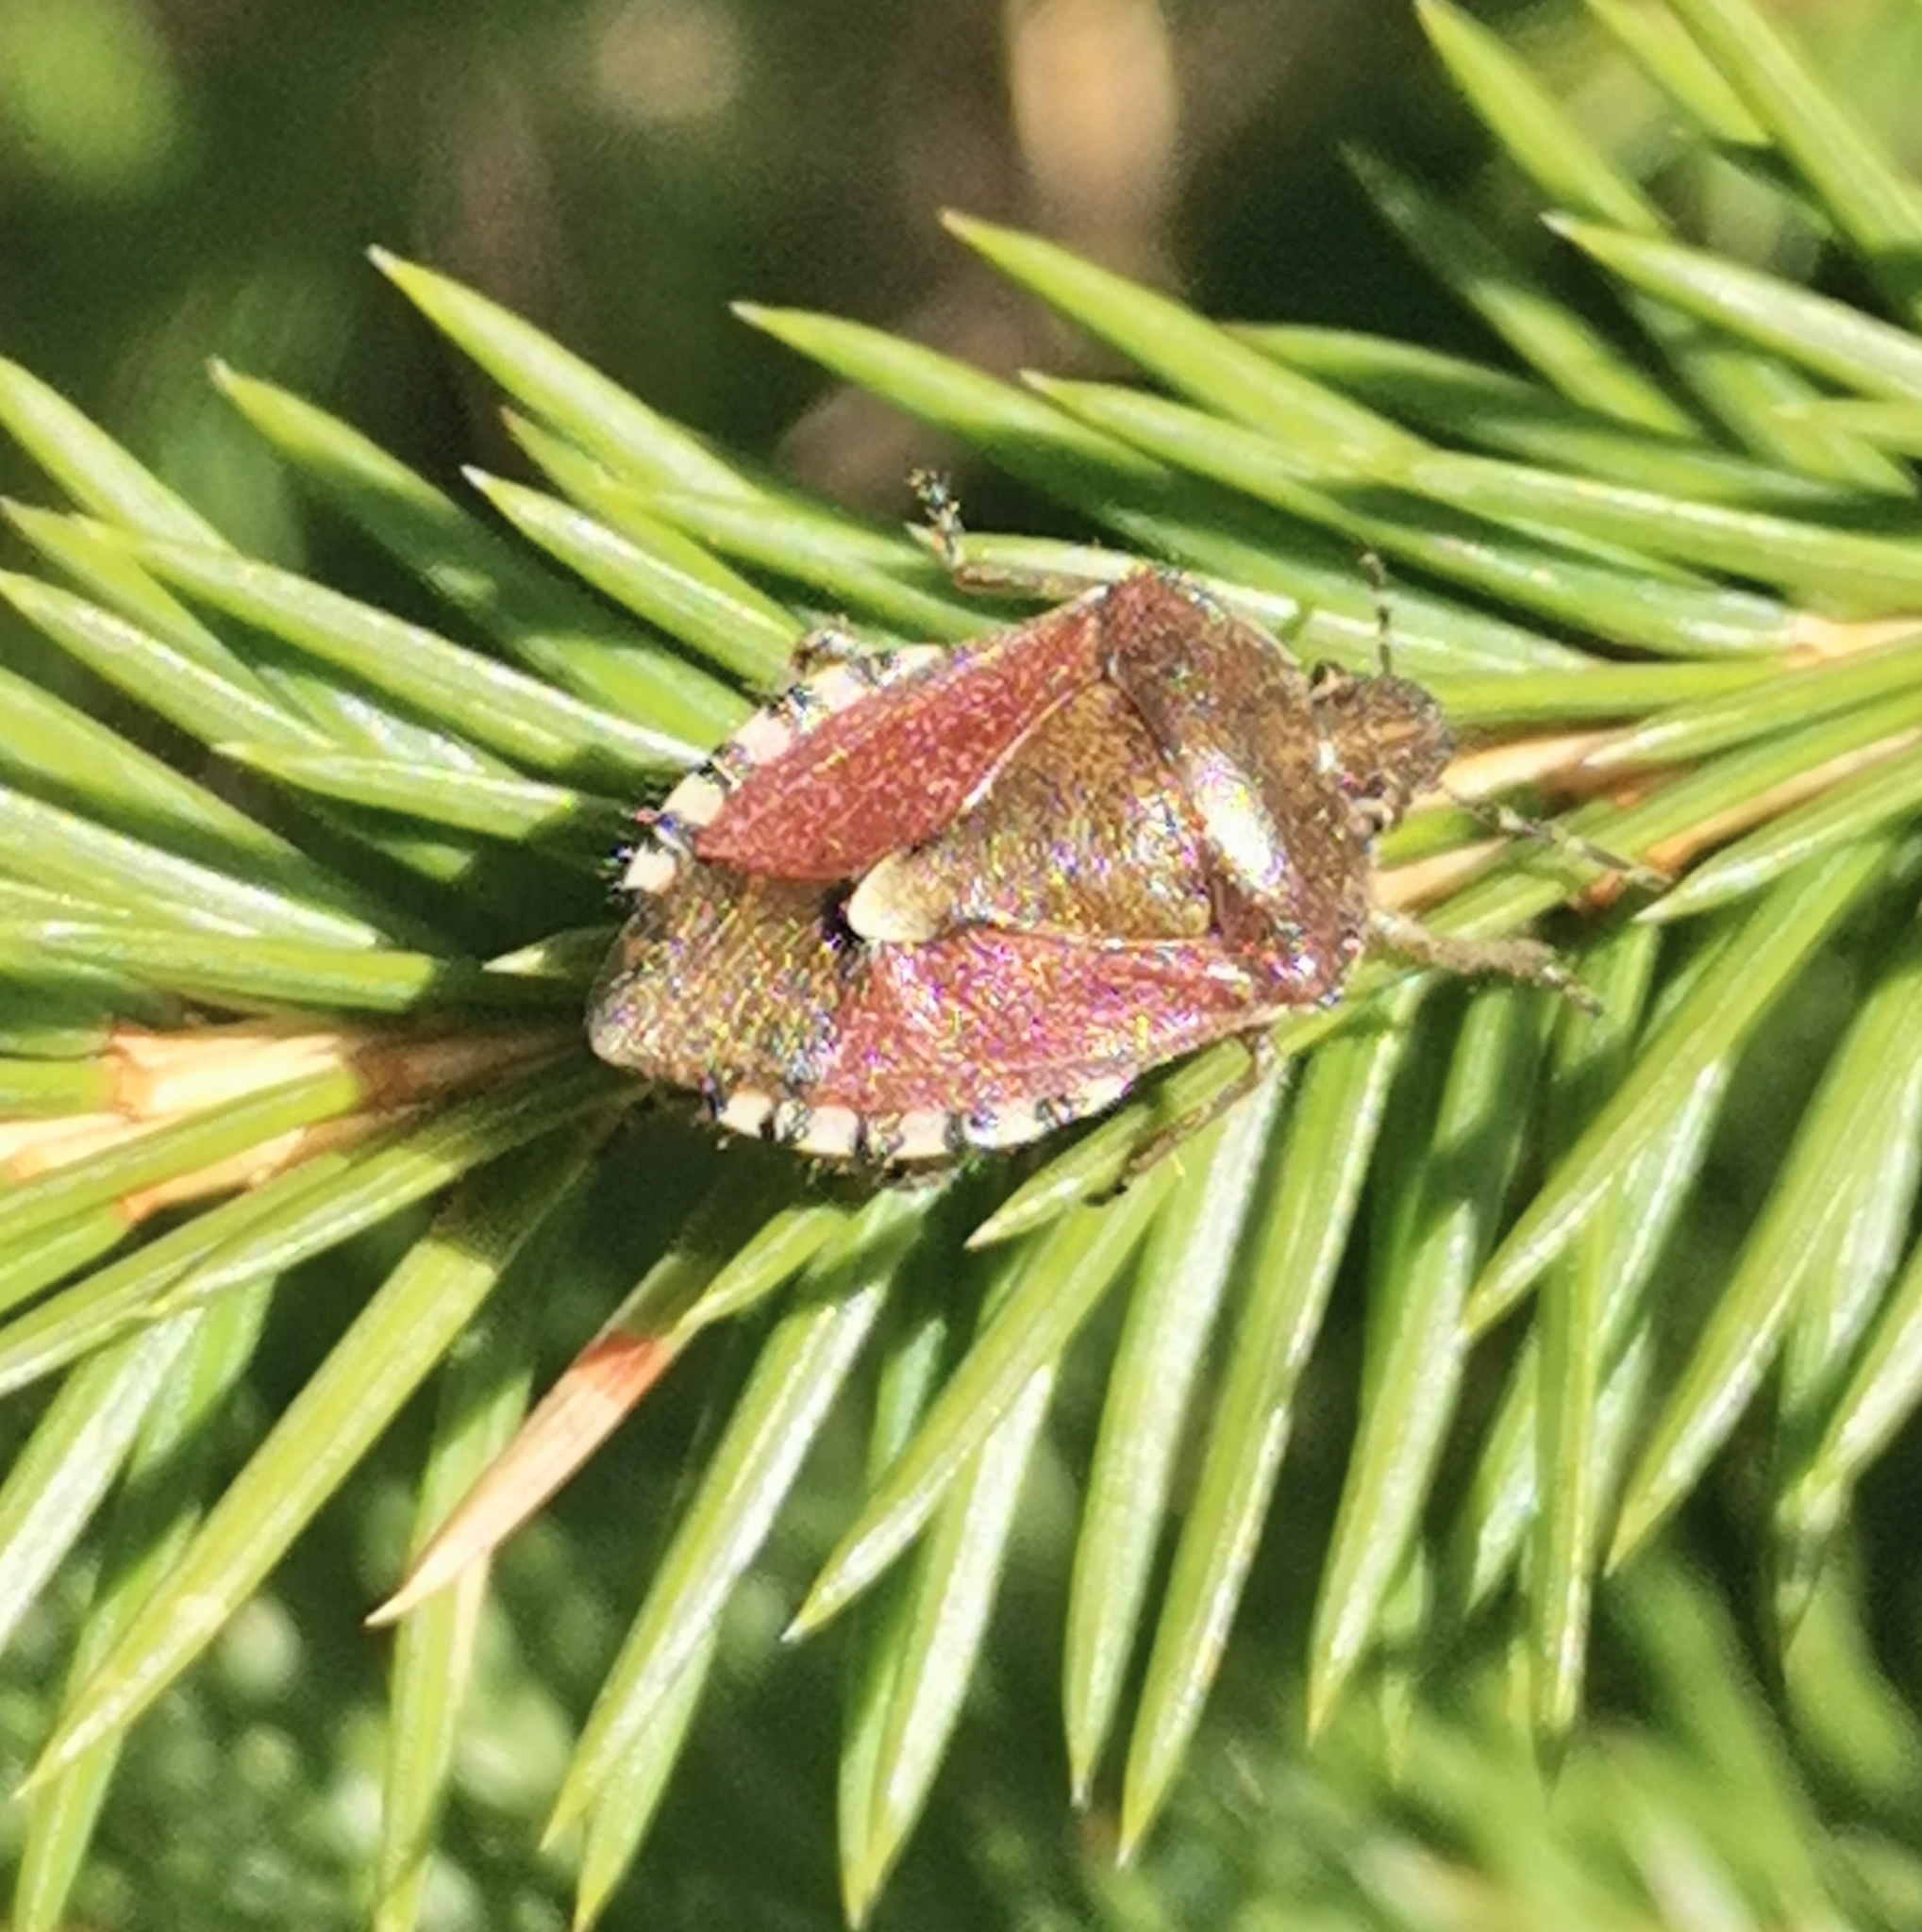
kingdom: Animalia
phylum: Arthropoda
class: Insecta
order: Hemiptera
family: Pentatomidae
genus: Dolycoris
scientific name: Dolycoris baccarum
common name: Sloe bug
